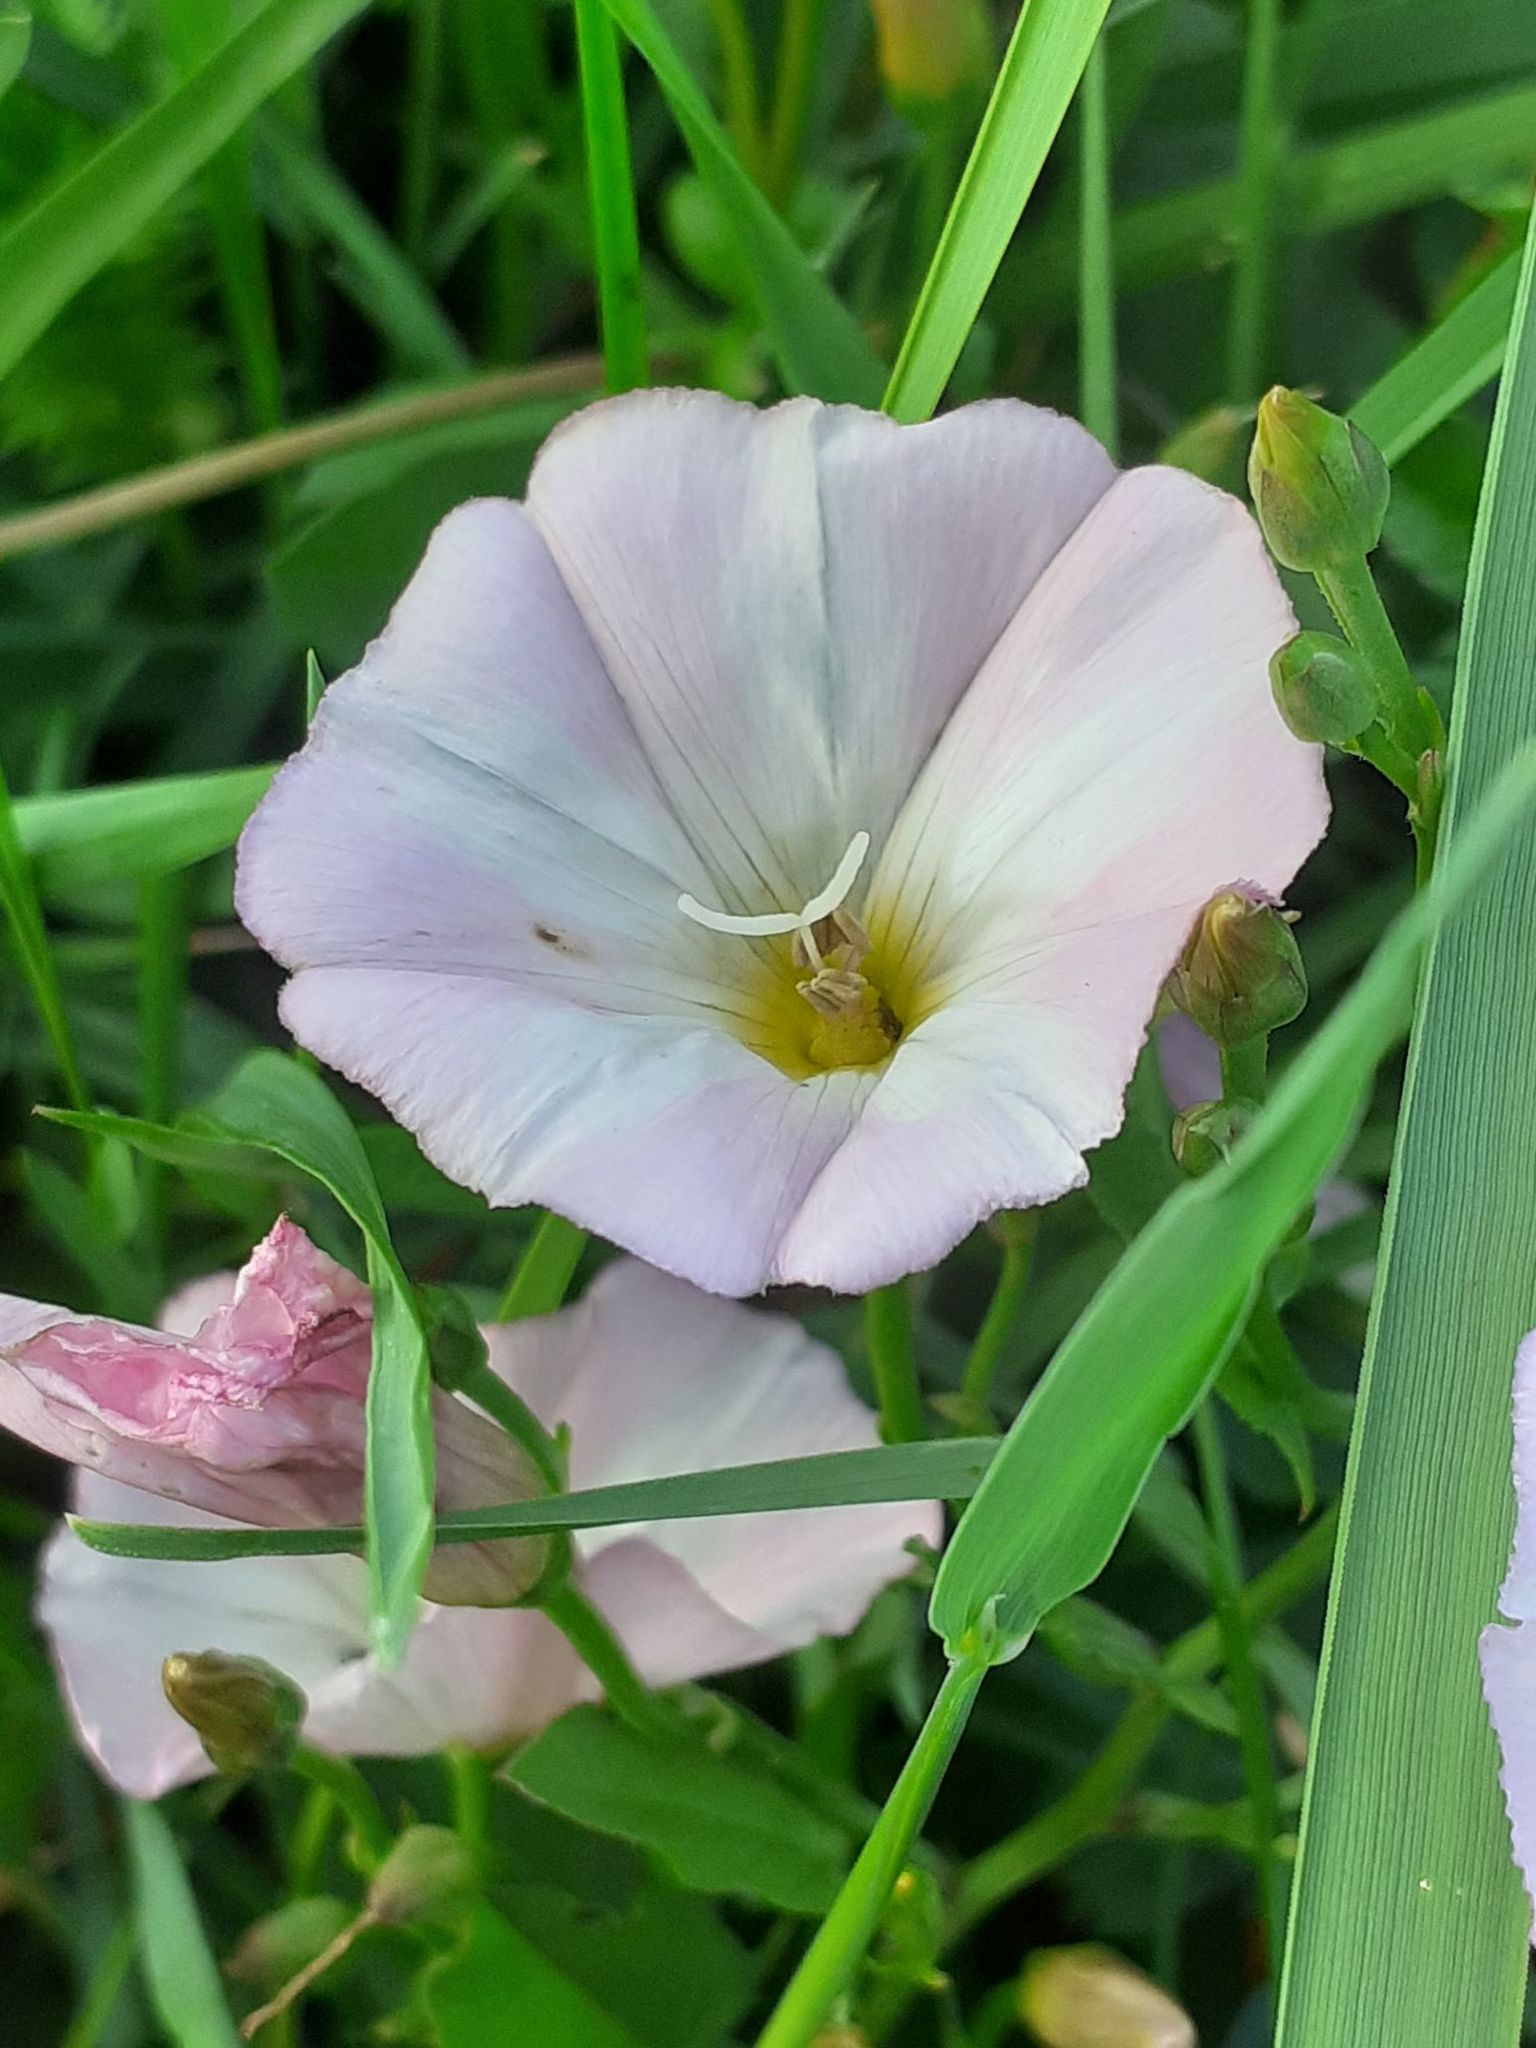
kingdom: Plantae
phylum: Tracheophyta
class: Magnoliopsida
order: Solanales
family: Convolvulaceae
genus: Convolvulus
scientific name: Convolvulus arvensis
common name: Field bindweed
